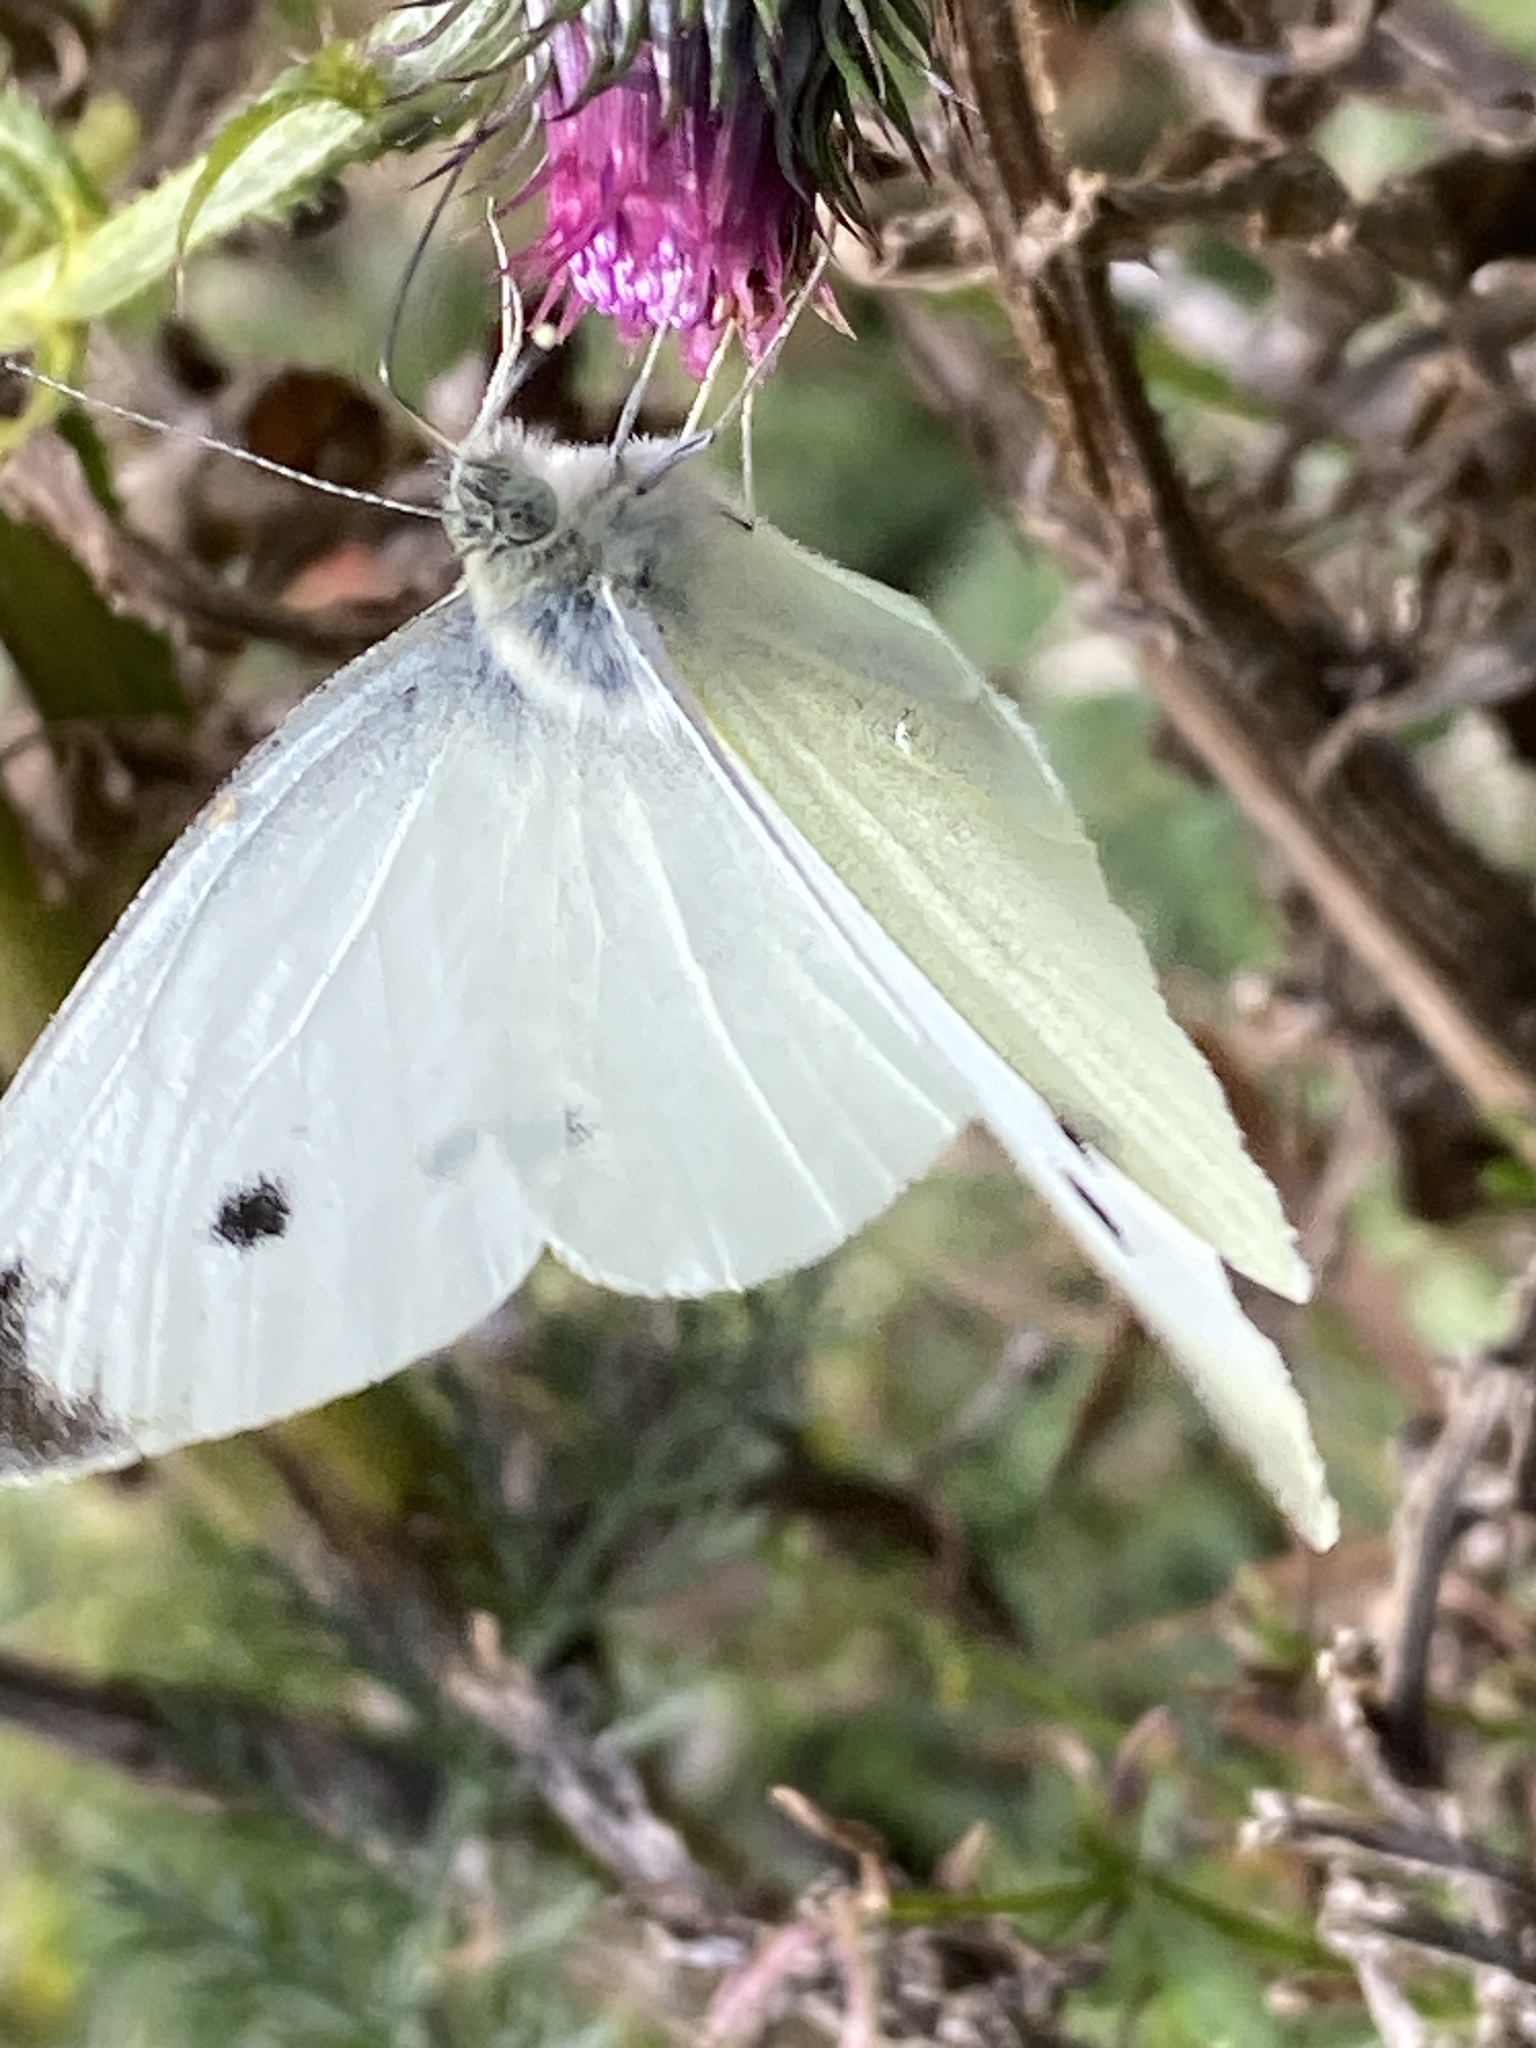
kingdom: Animalia
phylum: Arthropoda
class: Insecta
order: Lepidoptera
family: Pieridae
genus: Pieris
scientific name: Pieris rapae
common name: Small white
